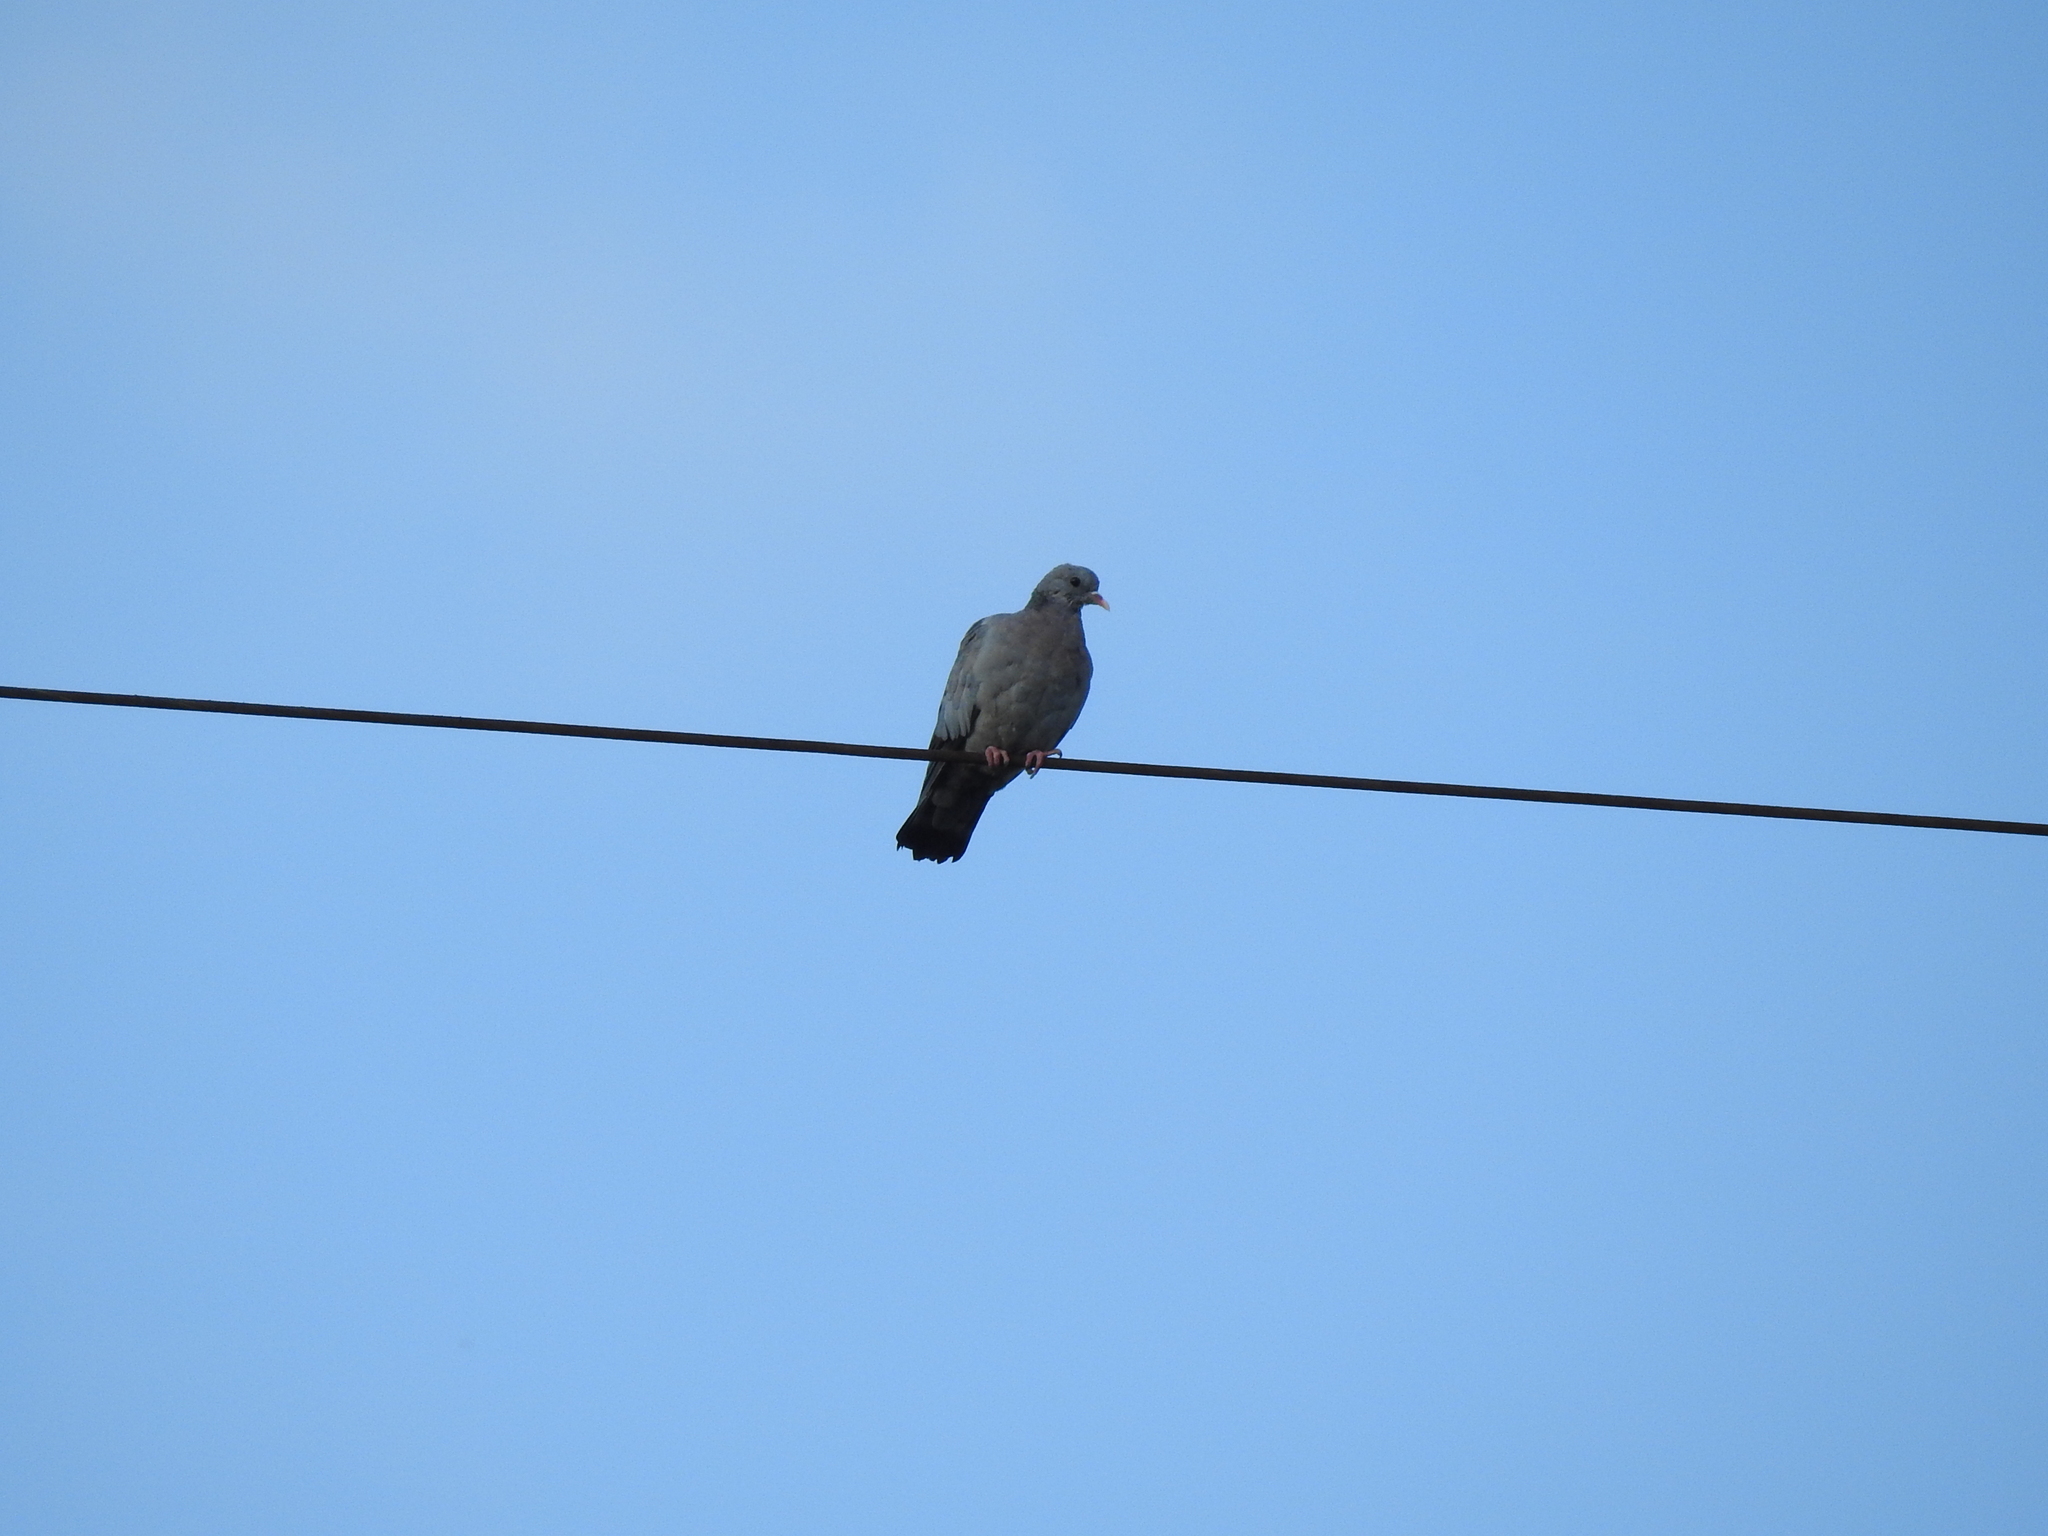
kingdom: Animalia
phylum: Chordata
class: Aves
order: Columbiformes
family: Columbidae
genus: Columba
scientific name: Columba oenas
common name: Stock dove
